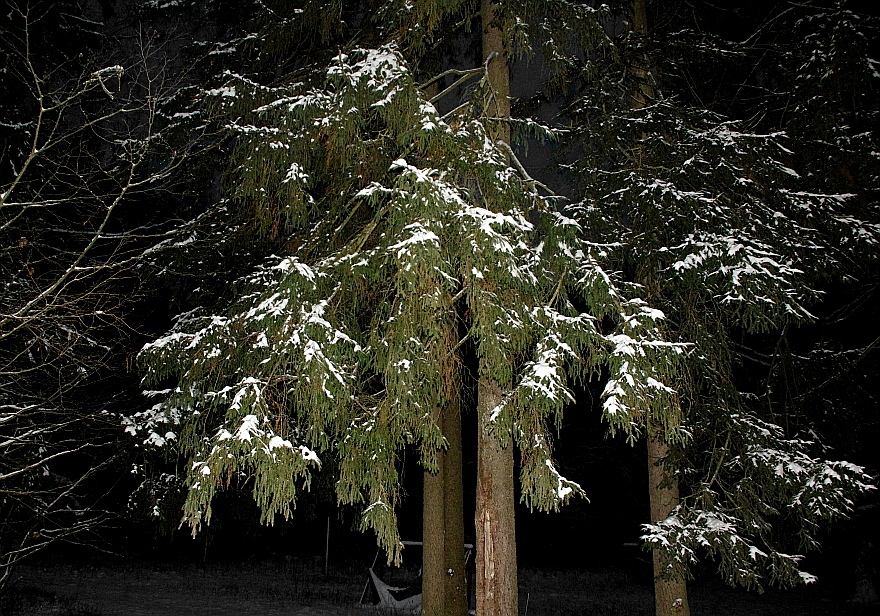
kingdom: Plantae
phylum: Tracheophyta
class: Pinopsida
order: Pinales
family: Pinaceae
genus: Picea
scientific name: Picea abies
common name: Norway spruce
